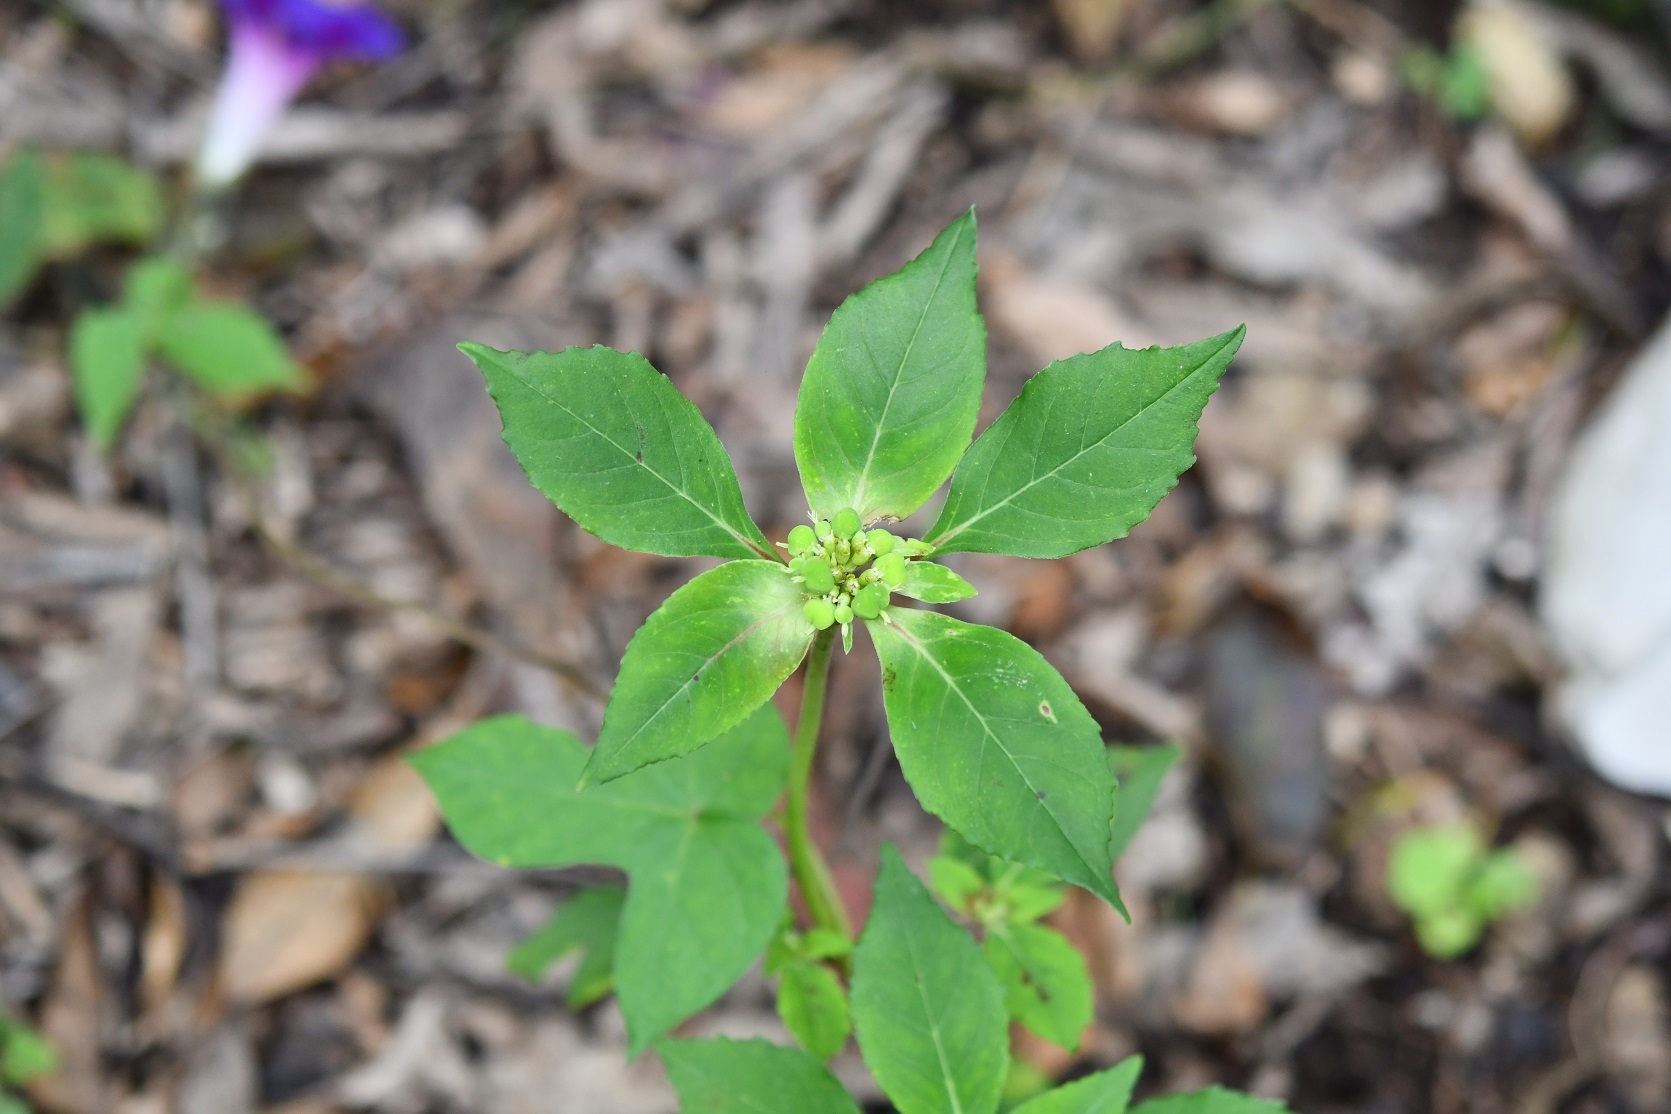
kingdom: Plantae
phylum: Tracheophyta
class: Magnoliopsida
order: Malpighiales
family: Euphorbiaceae
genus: Euphorbia
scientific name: Euphorbia dentata
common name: Dentate spurge
